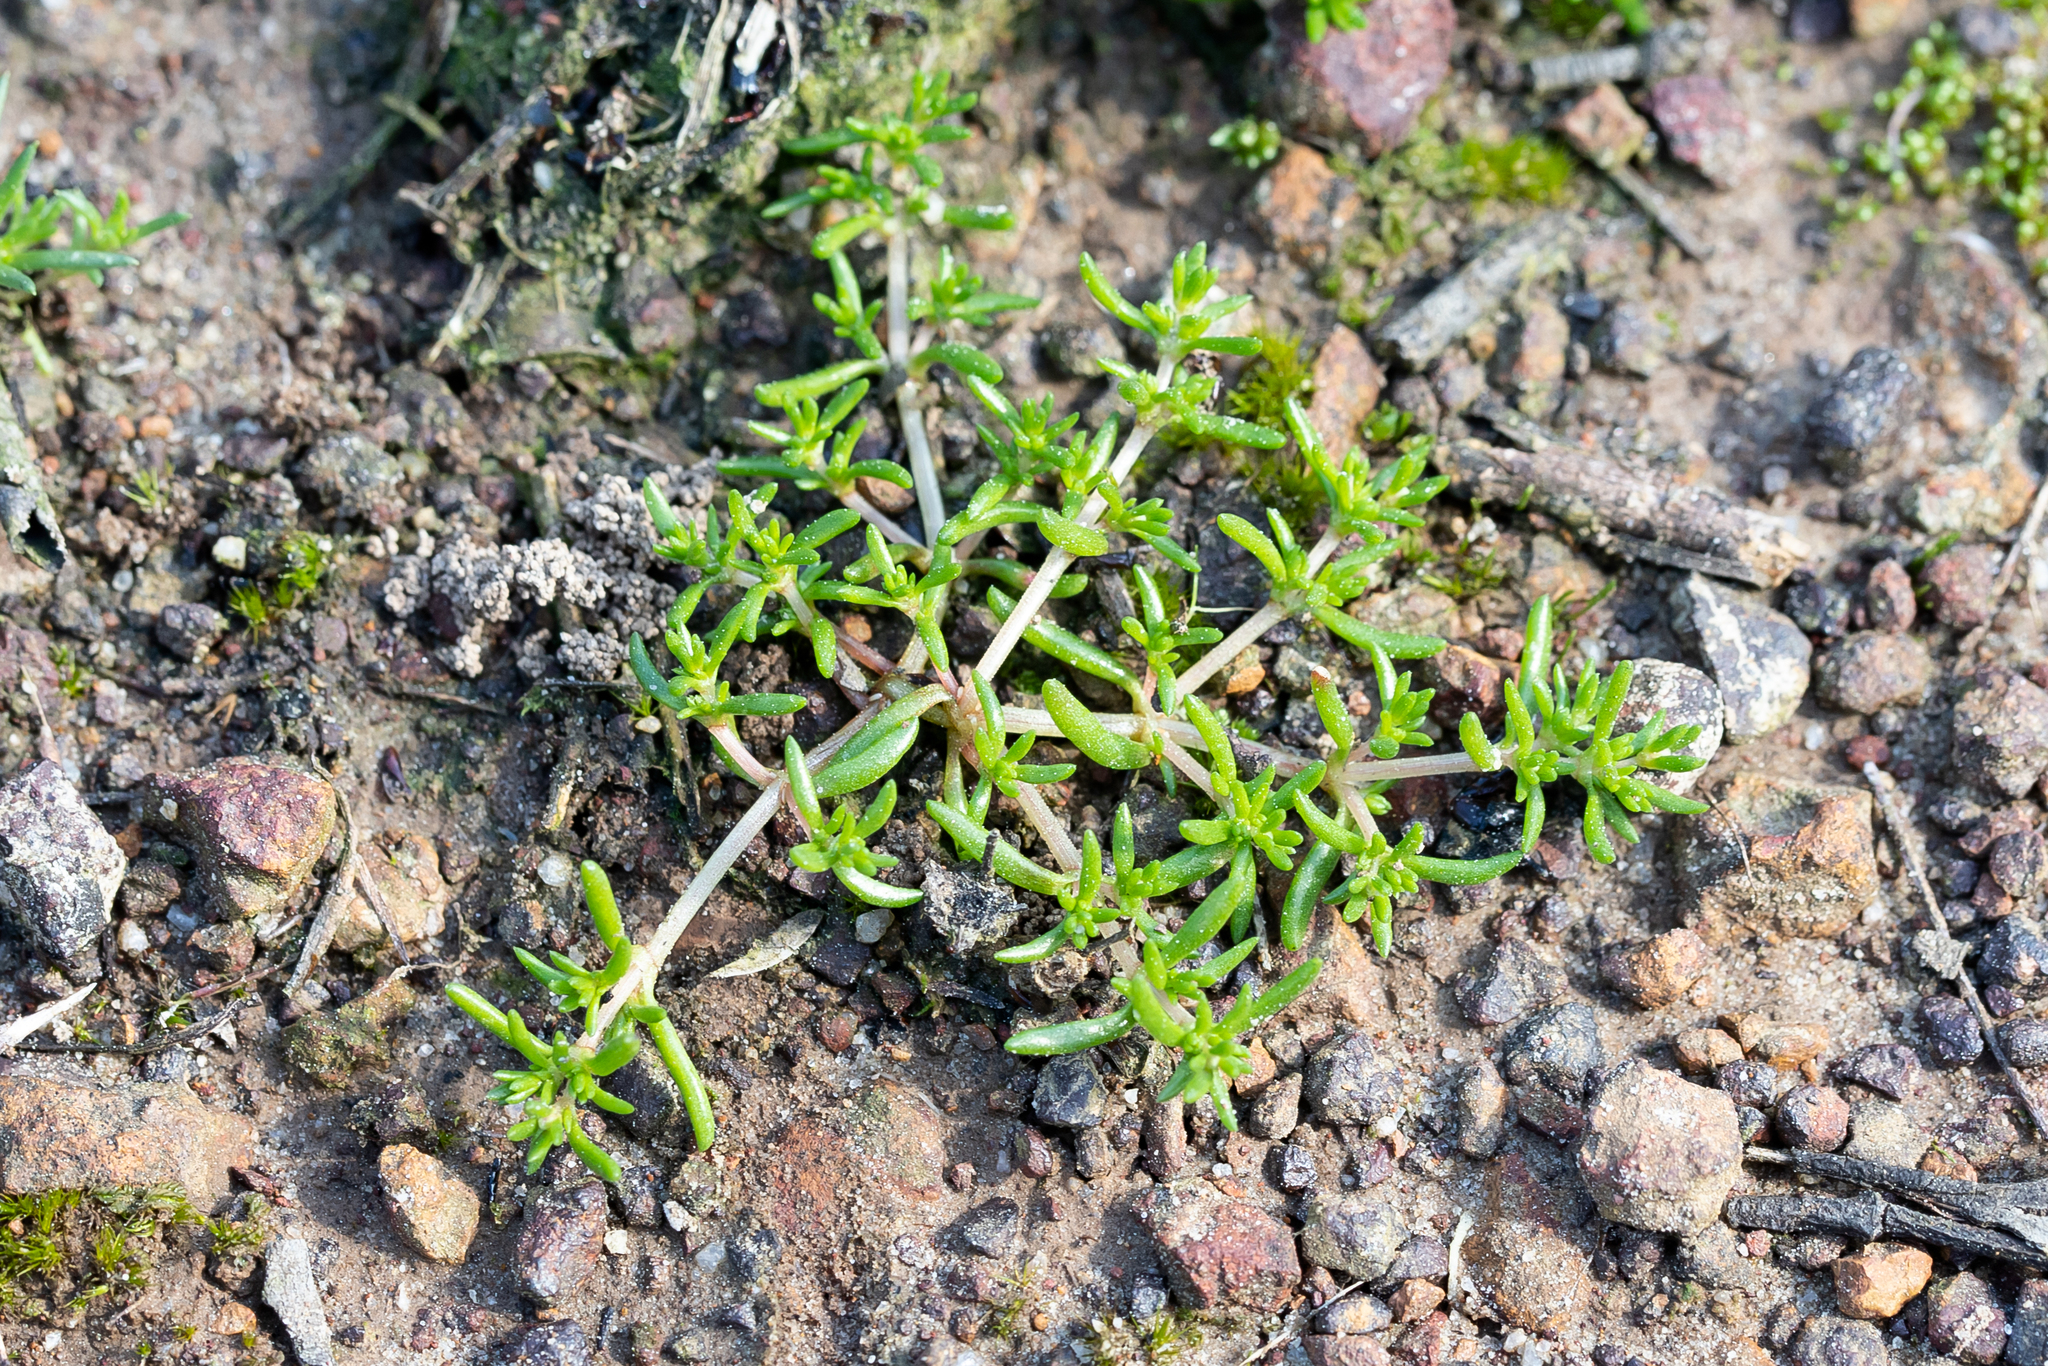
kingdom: Plantae
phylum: Tracheophyta
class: Magnoliopsida
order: Saxifragales
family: Crassulaceae
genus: Crassula
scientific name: Crassula decumbens
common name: Scilly pigmyweed
